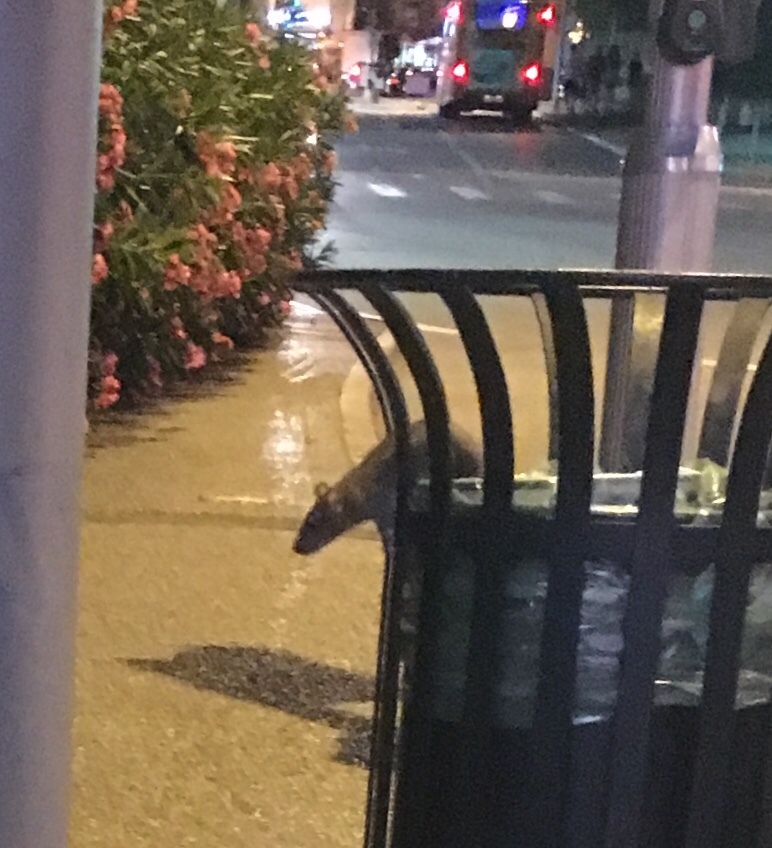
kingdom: Animalia
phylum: Chordata
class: Mammalia
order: Rodentia
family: Muridae
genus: Rattus
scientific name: Rattus norvegicus
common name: Brown rat
